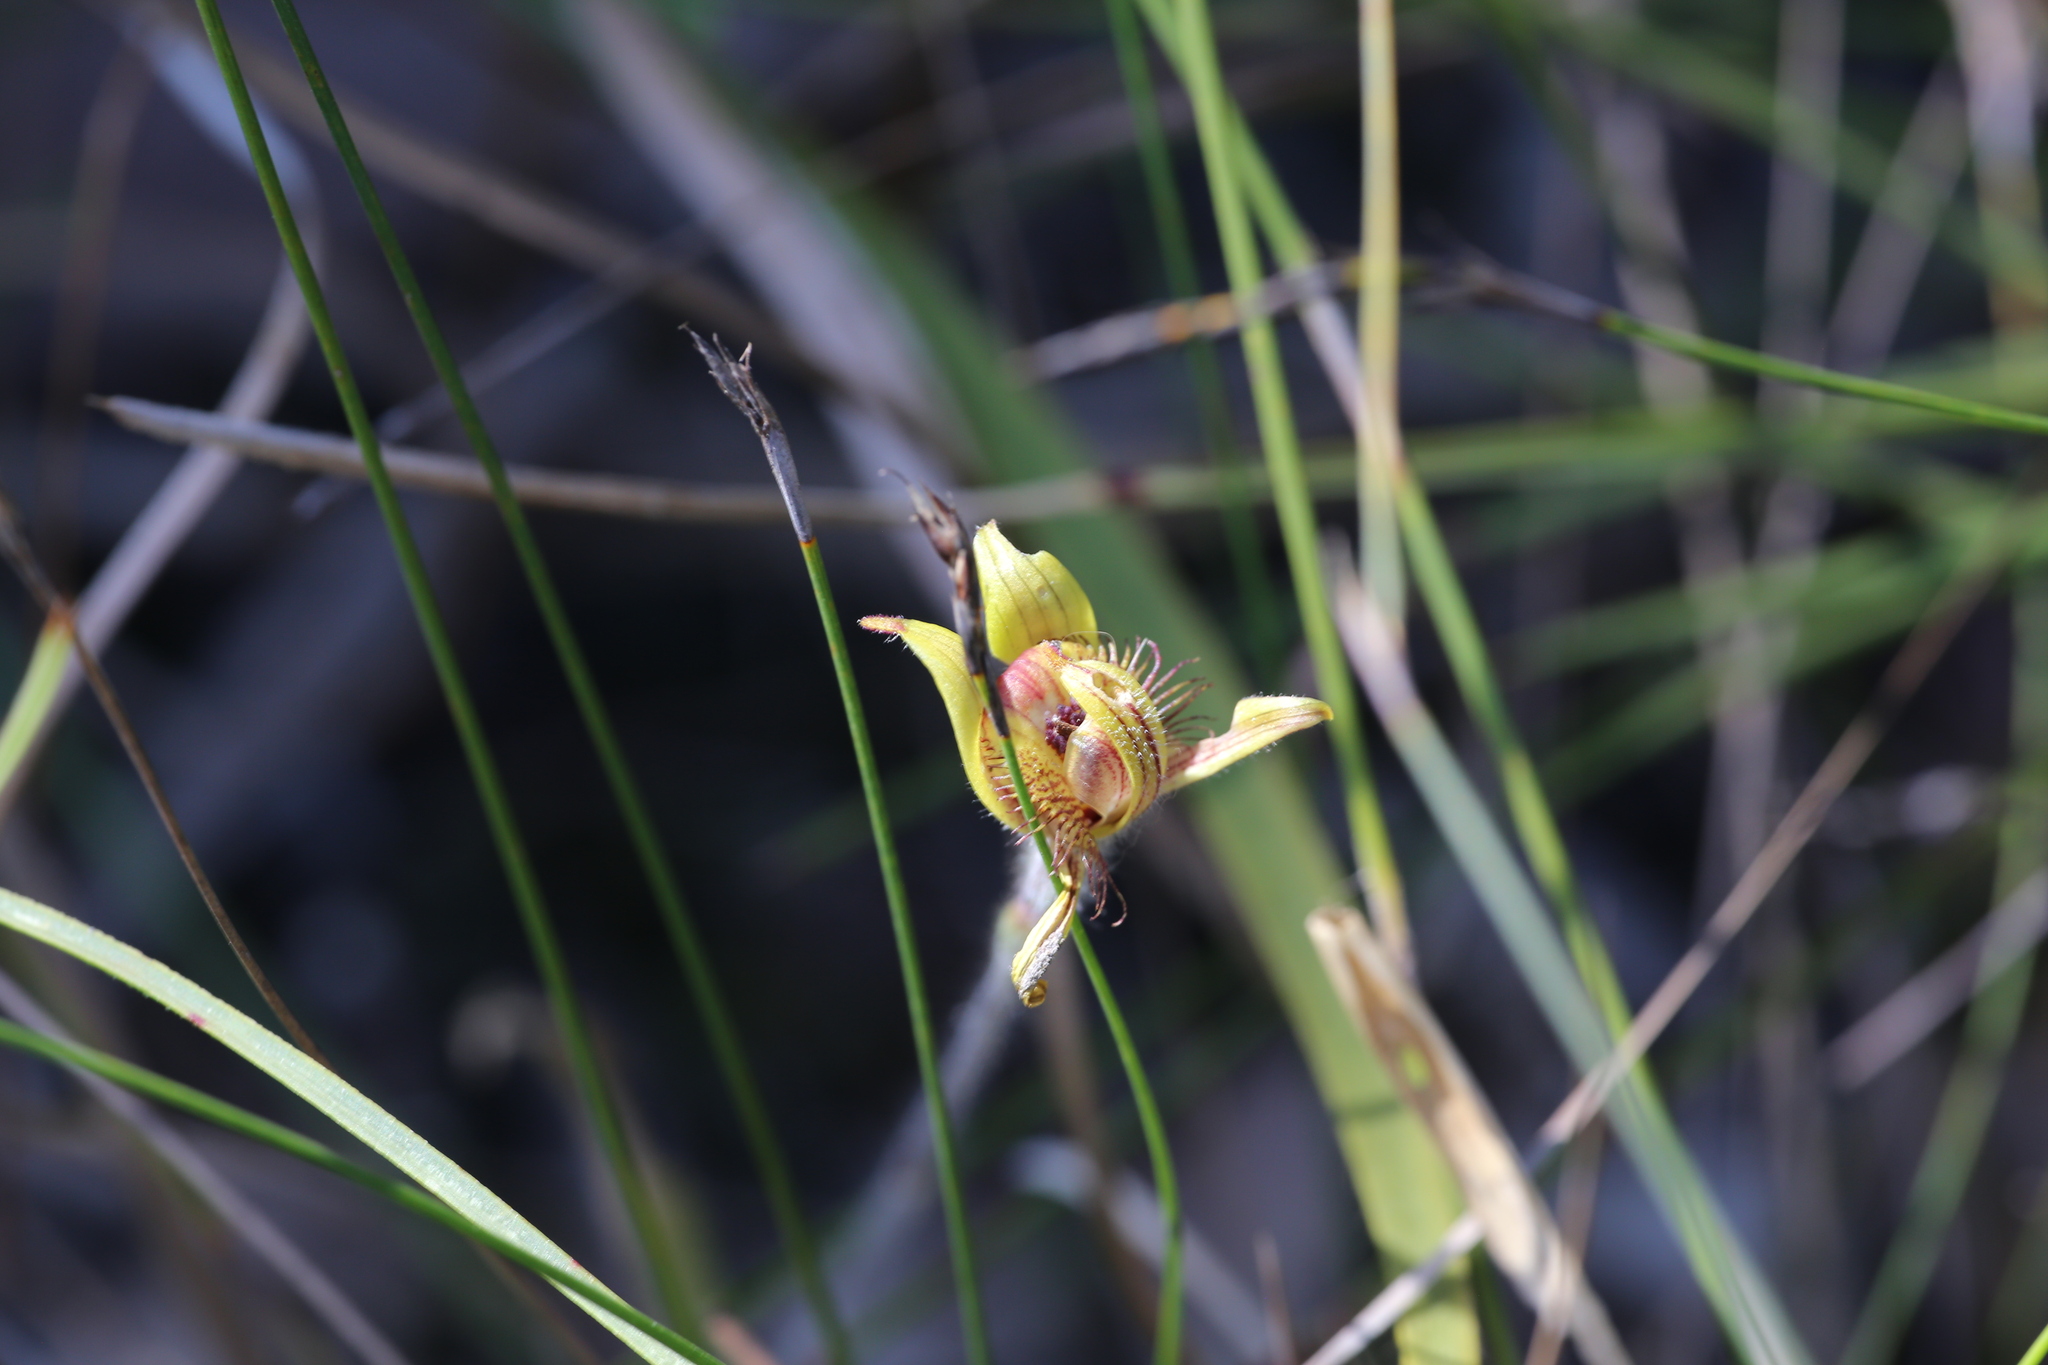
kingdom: Plantae
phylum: Tracheophyta
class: Liliopsida
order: Asparagales
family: Orchidaceae
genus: Caladenia
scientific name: Caladenia discoidea
